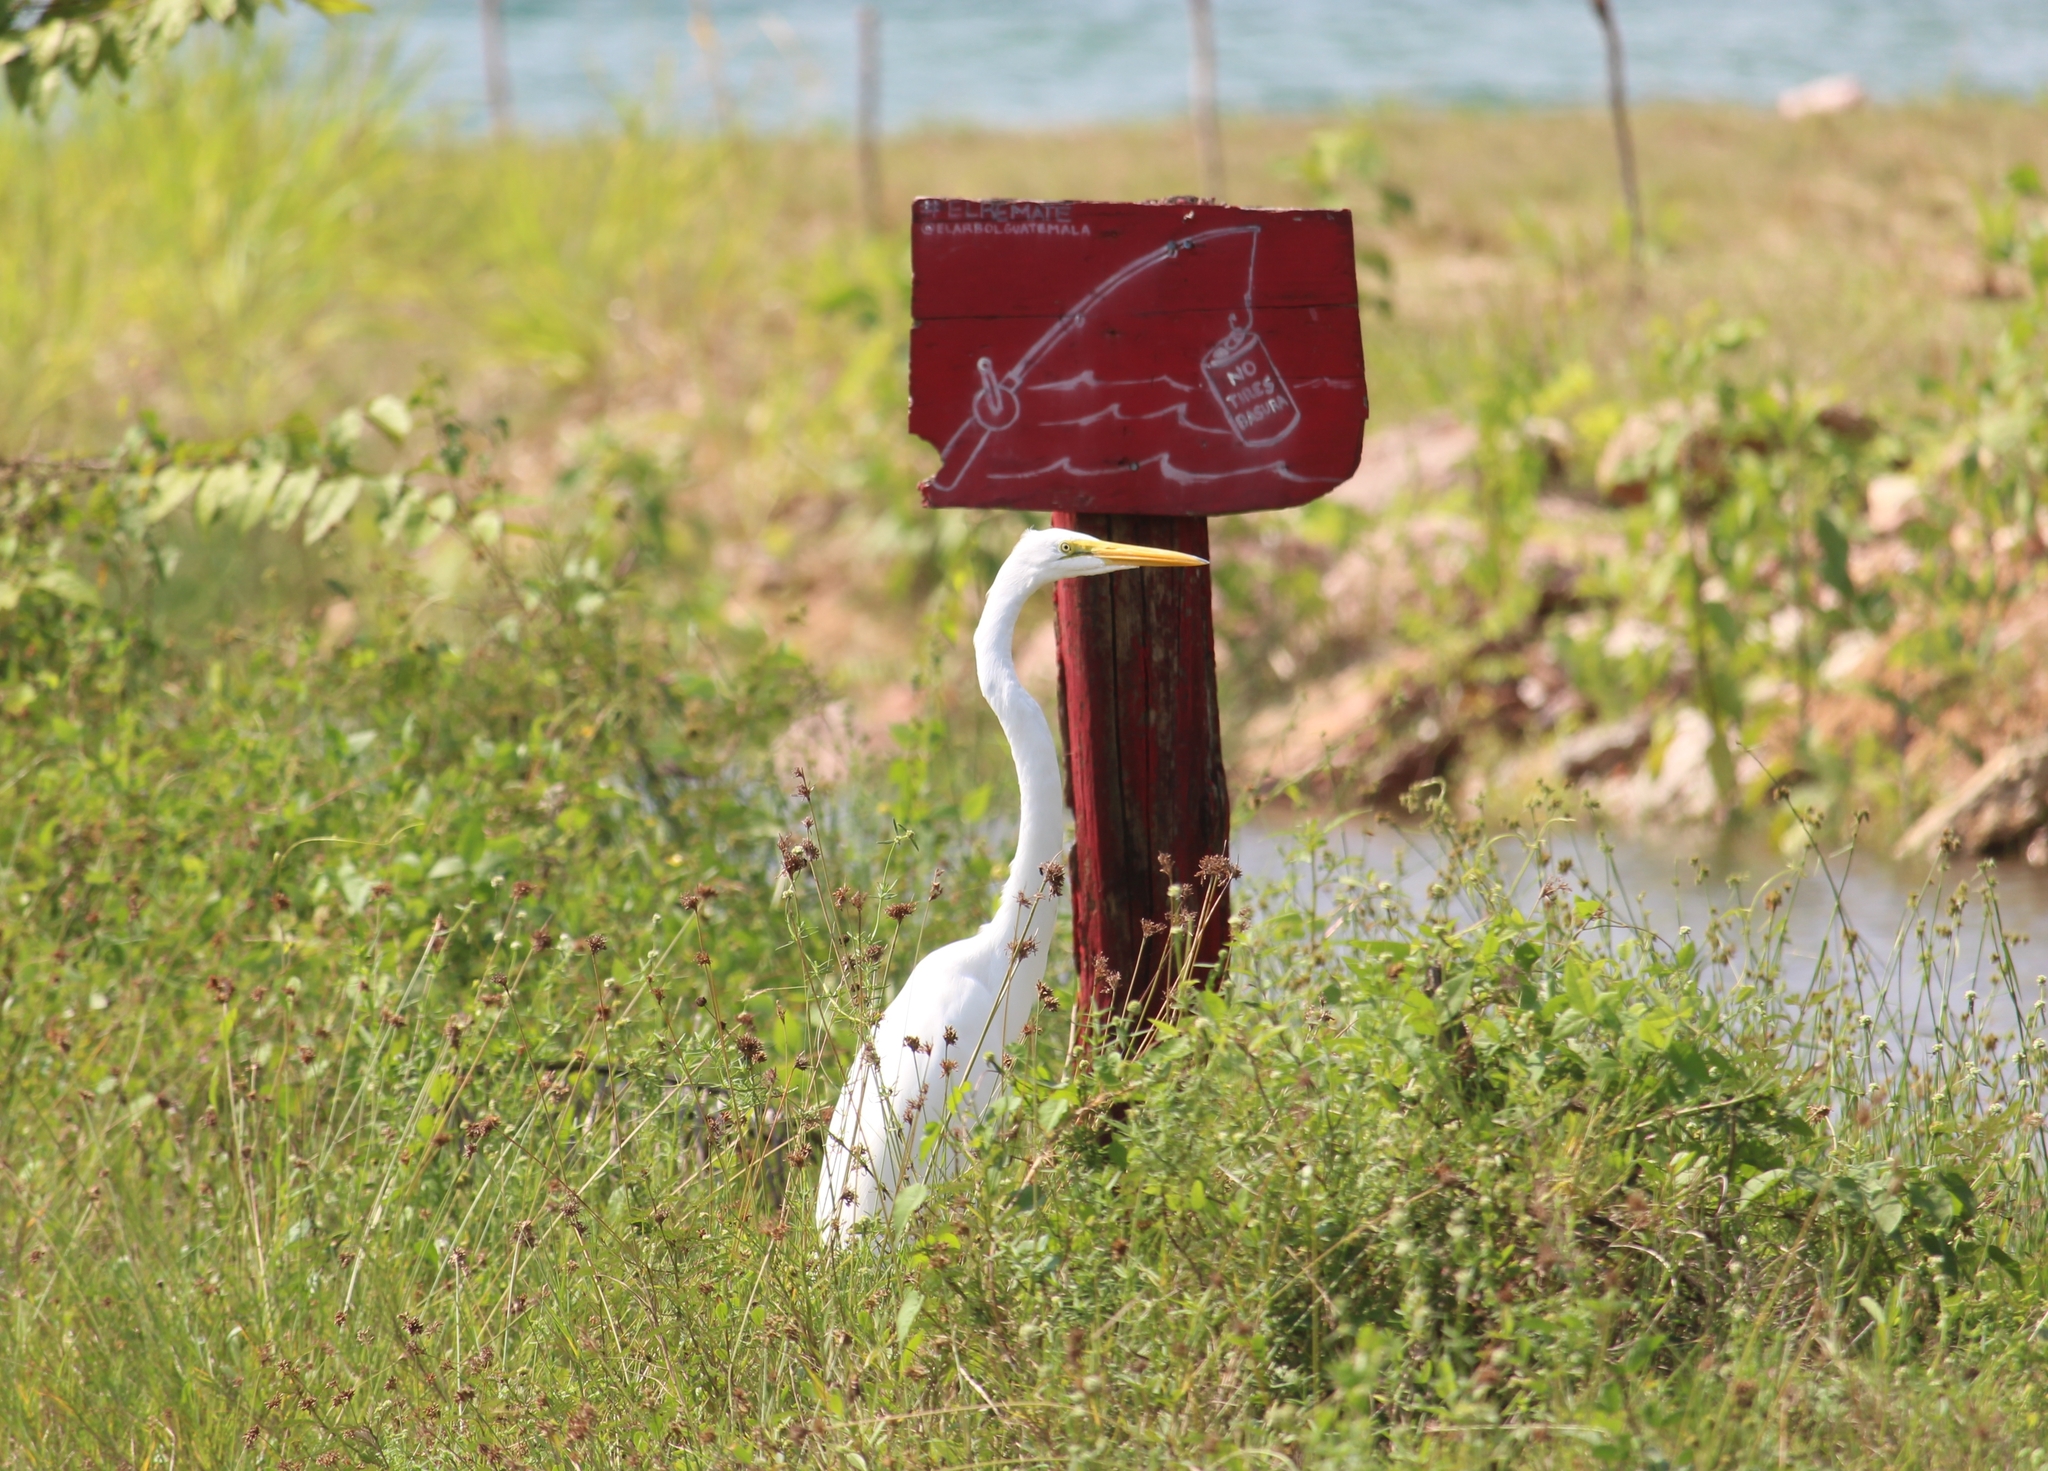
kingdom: Animalia
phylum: Chordata
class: Aves
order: Pelecaniformes
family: Ardeidae
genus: Ardea
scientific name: Ardea alba
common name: Great egret
